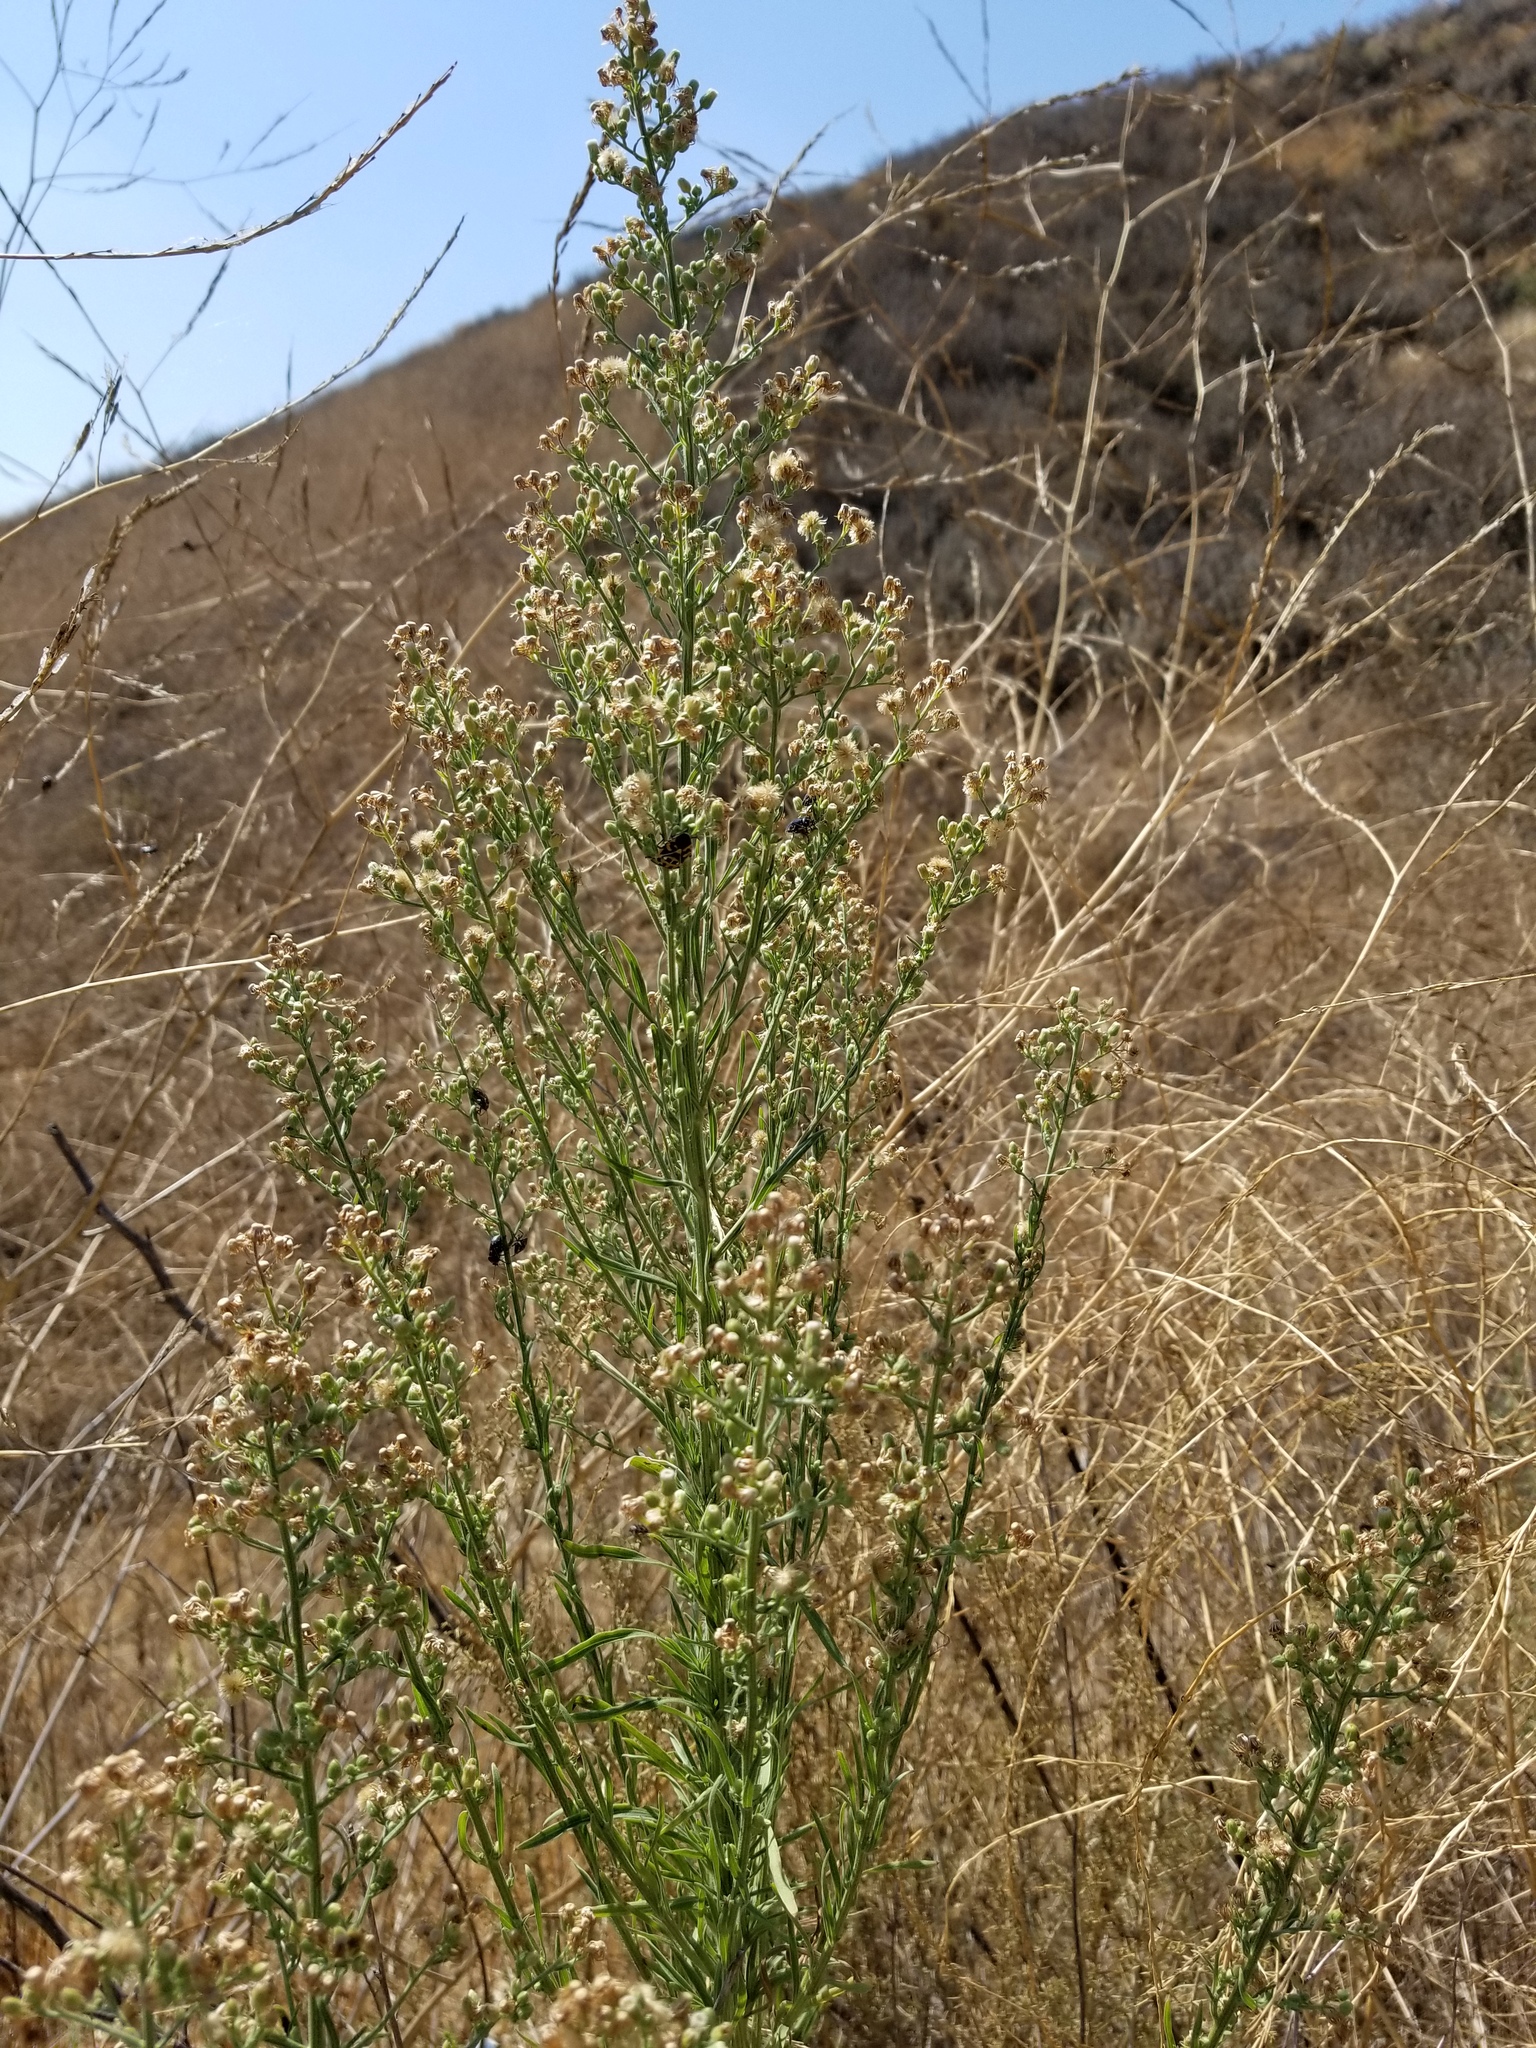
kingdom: Plantae
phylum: Tracheophyta
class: Magnoliopsida
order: Asterales
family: Asteraceae
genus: Erigeron
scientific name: Erigeron canadensis
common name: Canadian fleabane
